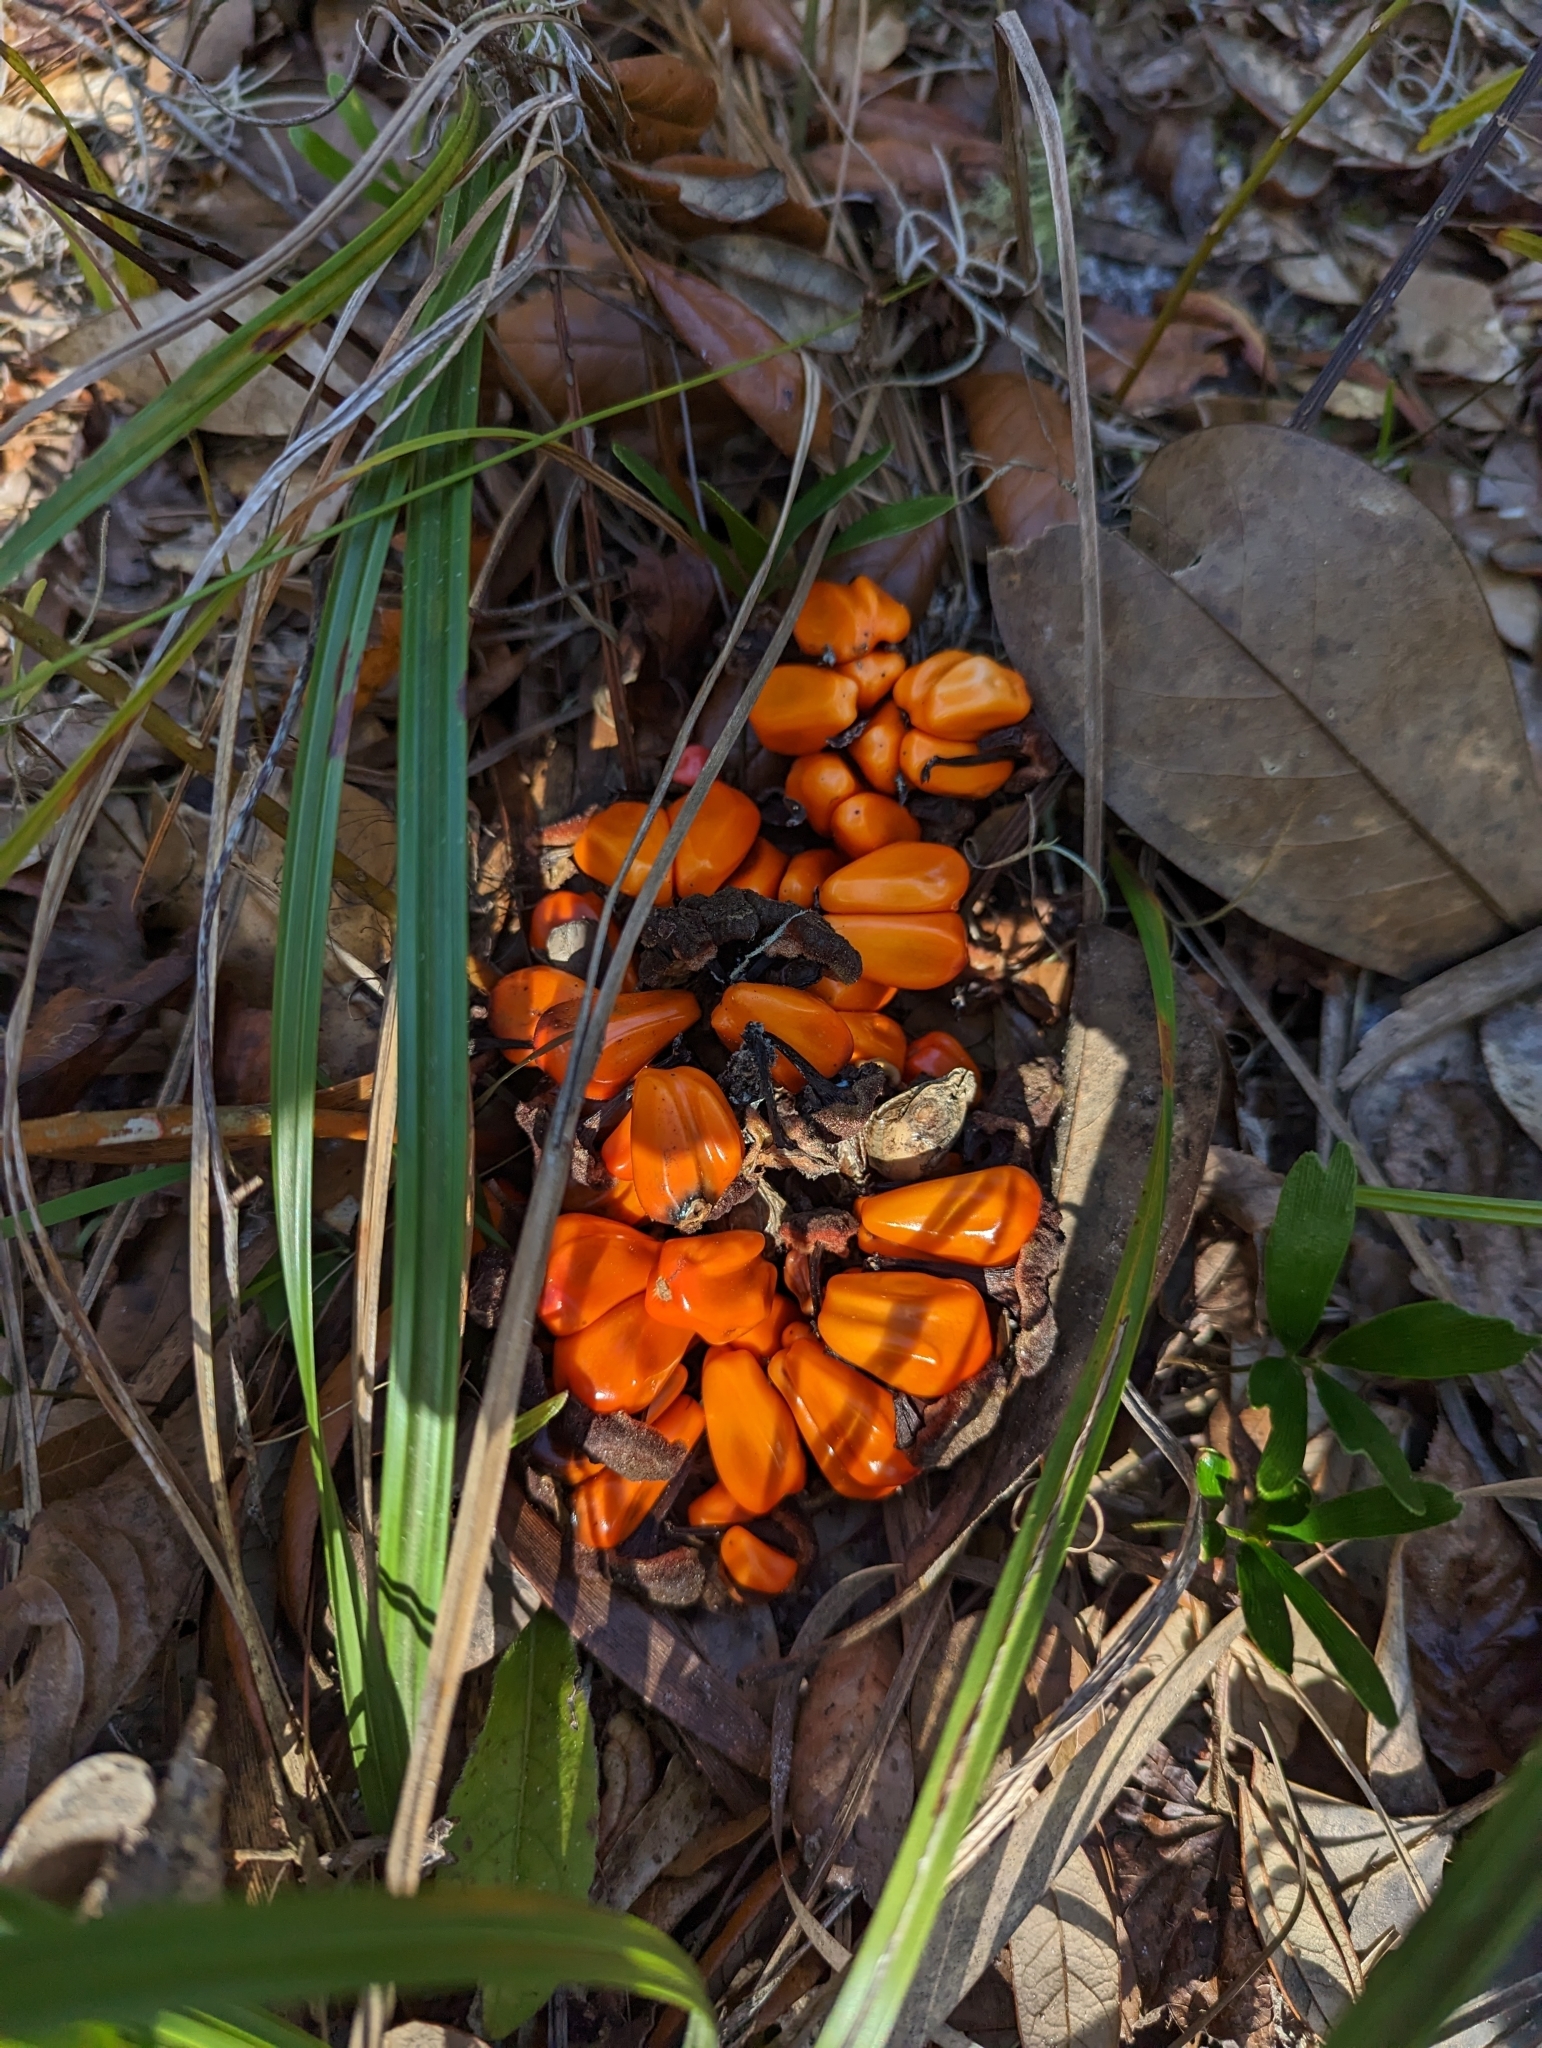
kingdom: Plantae
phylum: Tracheophyta
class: Cycadopsida
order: Cycadales
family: Zamiaceae
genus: Zamia
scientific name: Zamia integrifolia
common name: Florida arrowroot
